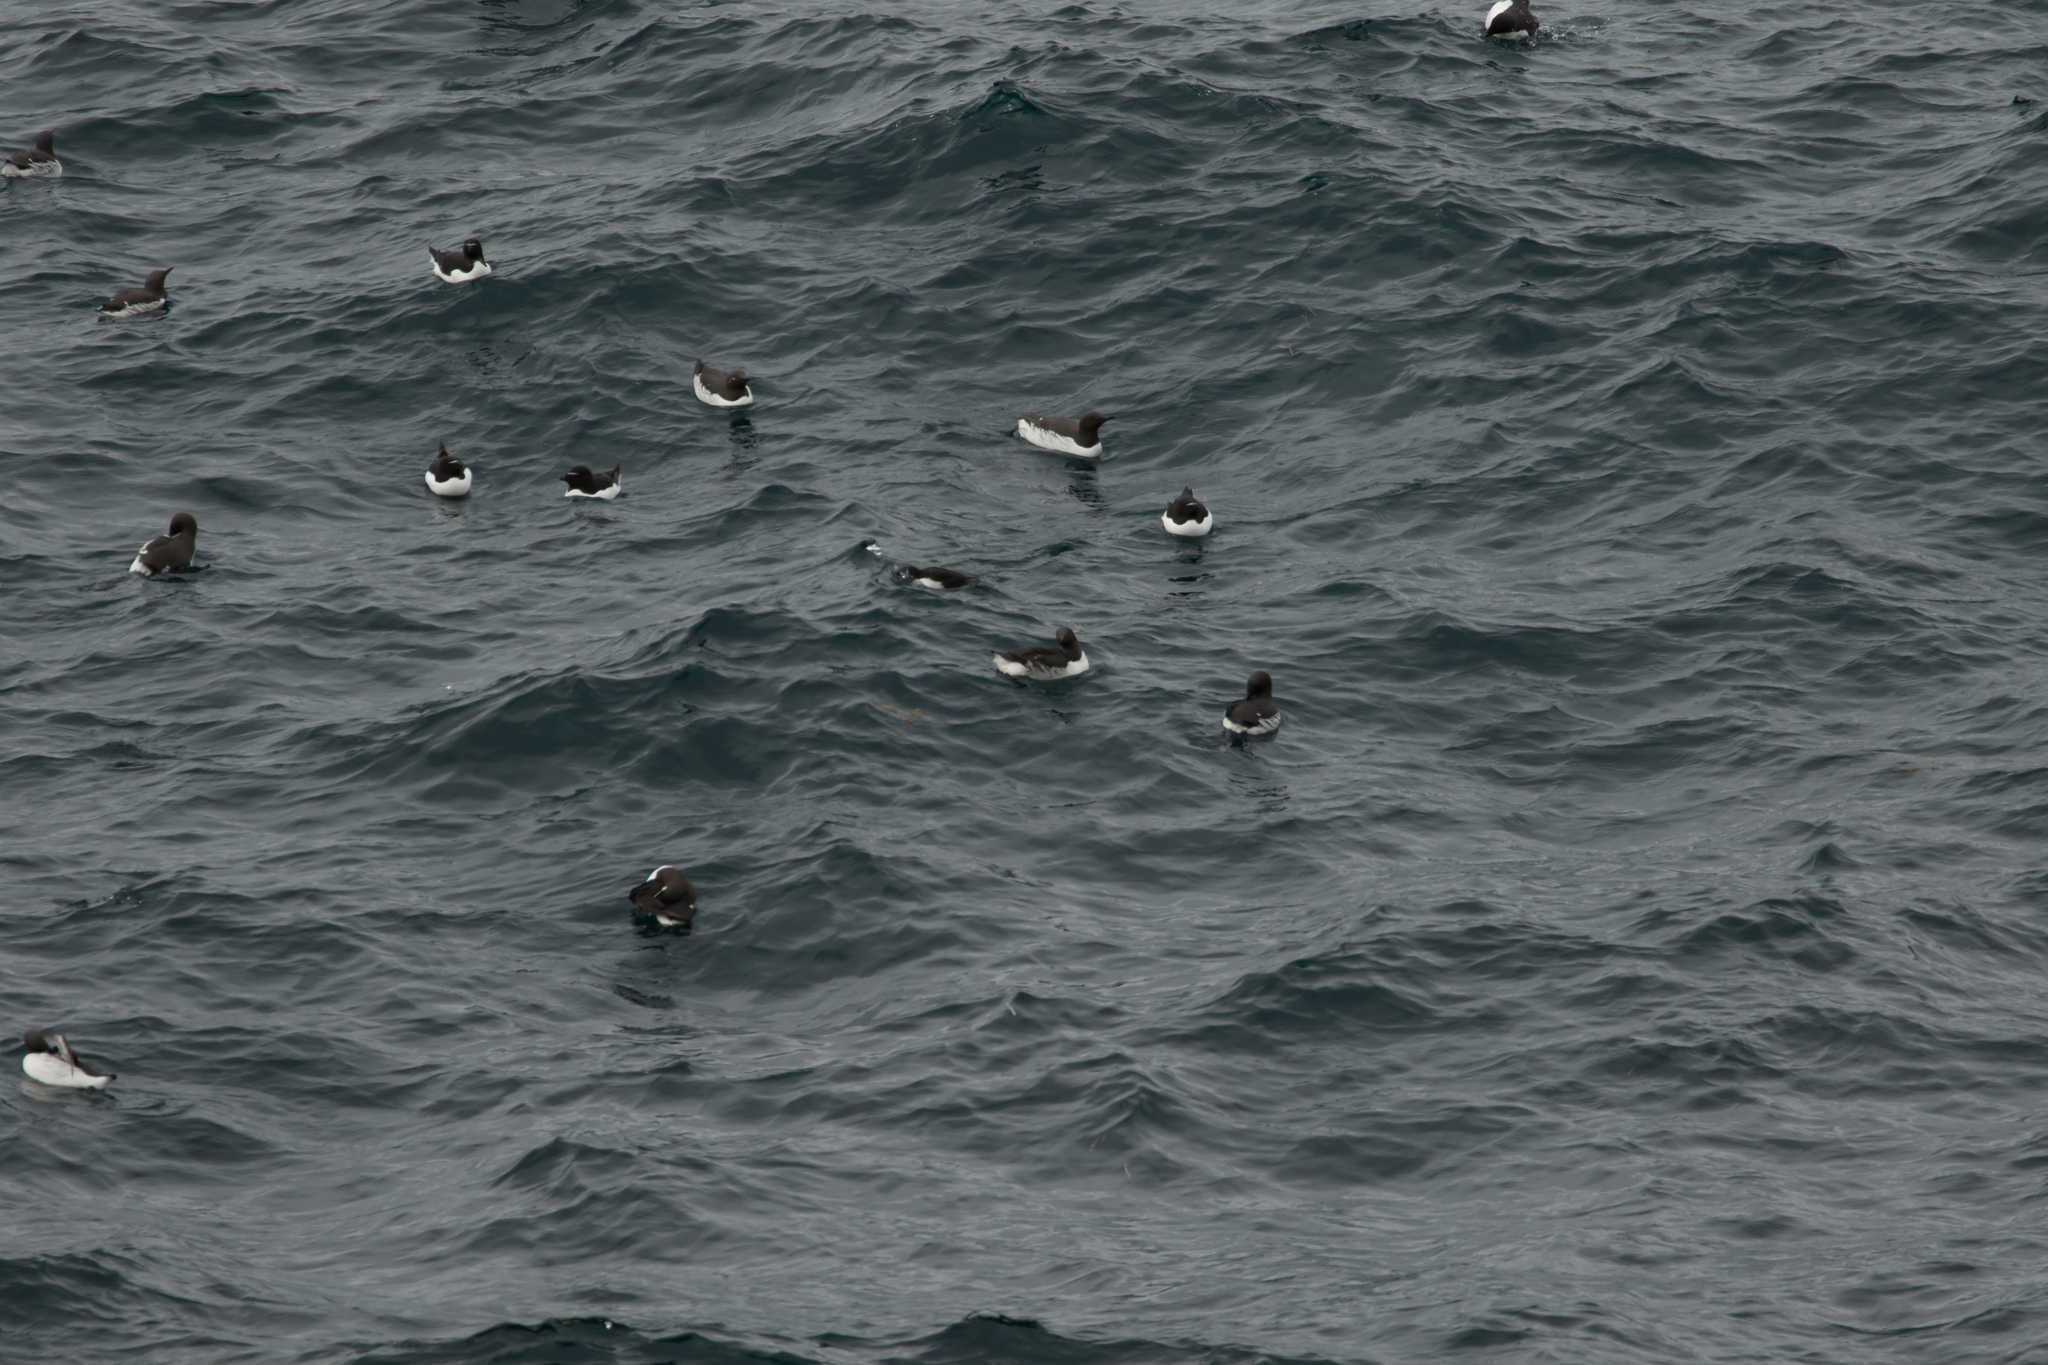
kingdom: Animalia
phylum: Chordata
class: Aves
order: Charadriiformes
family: Alcidae
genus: Uria
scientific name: Uria aalge
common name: Common murre
